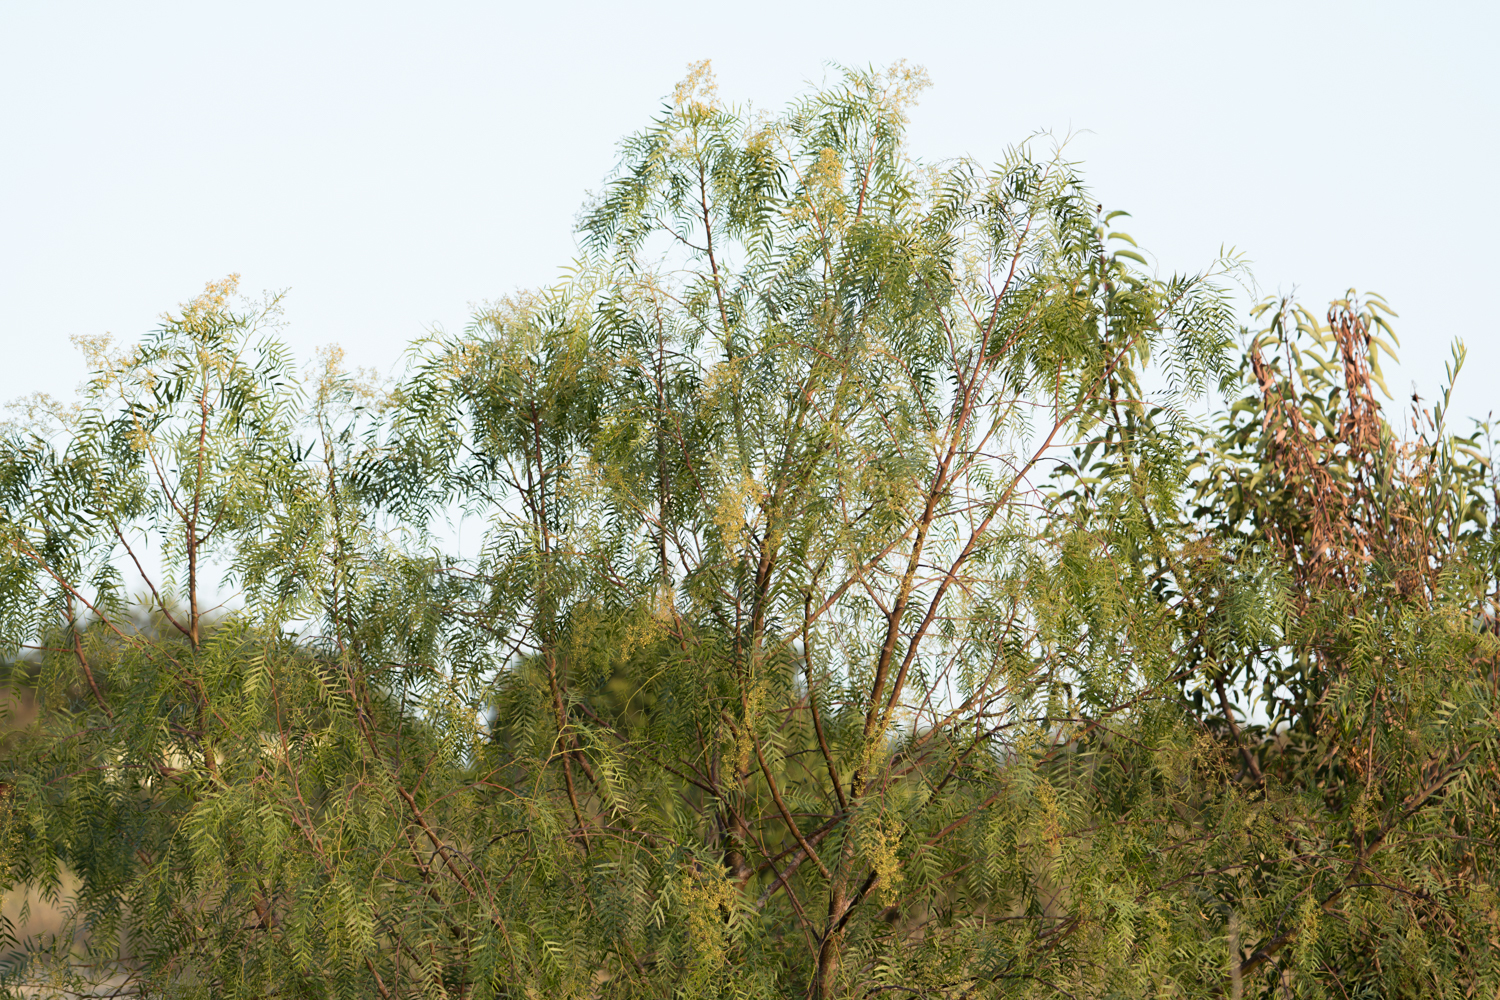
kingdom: Plantae
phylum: Tracheophyta
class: Magnoliopsida
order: Sapindales
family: Anacardiaceae
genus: Schinus
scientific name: Schinus molle
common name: Peruvian peppertree
